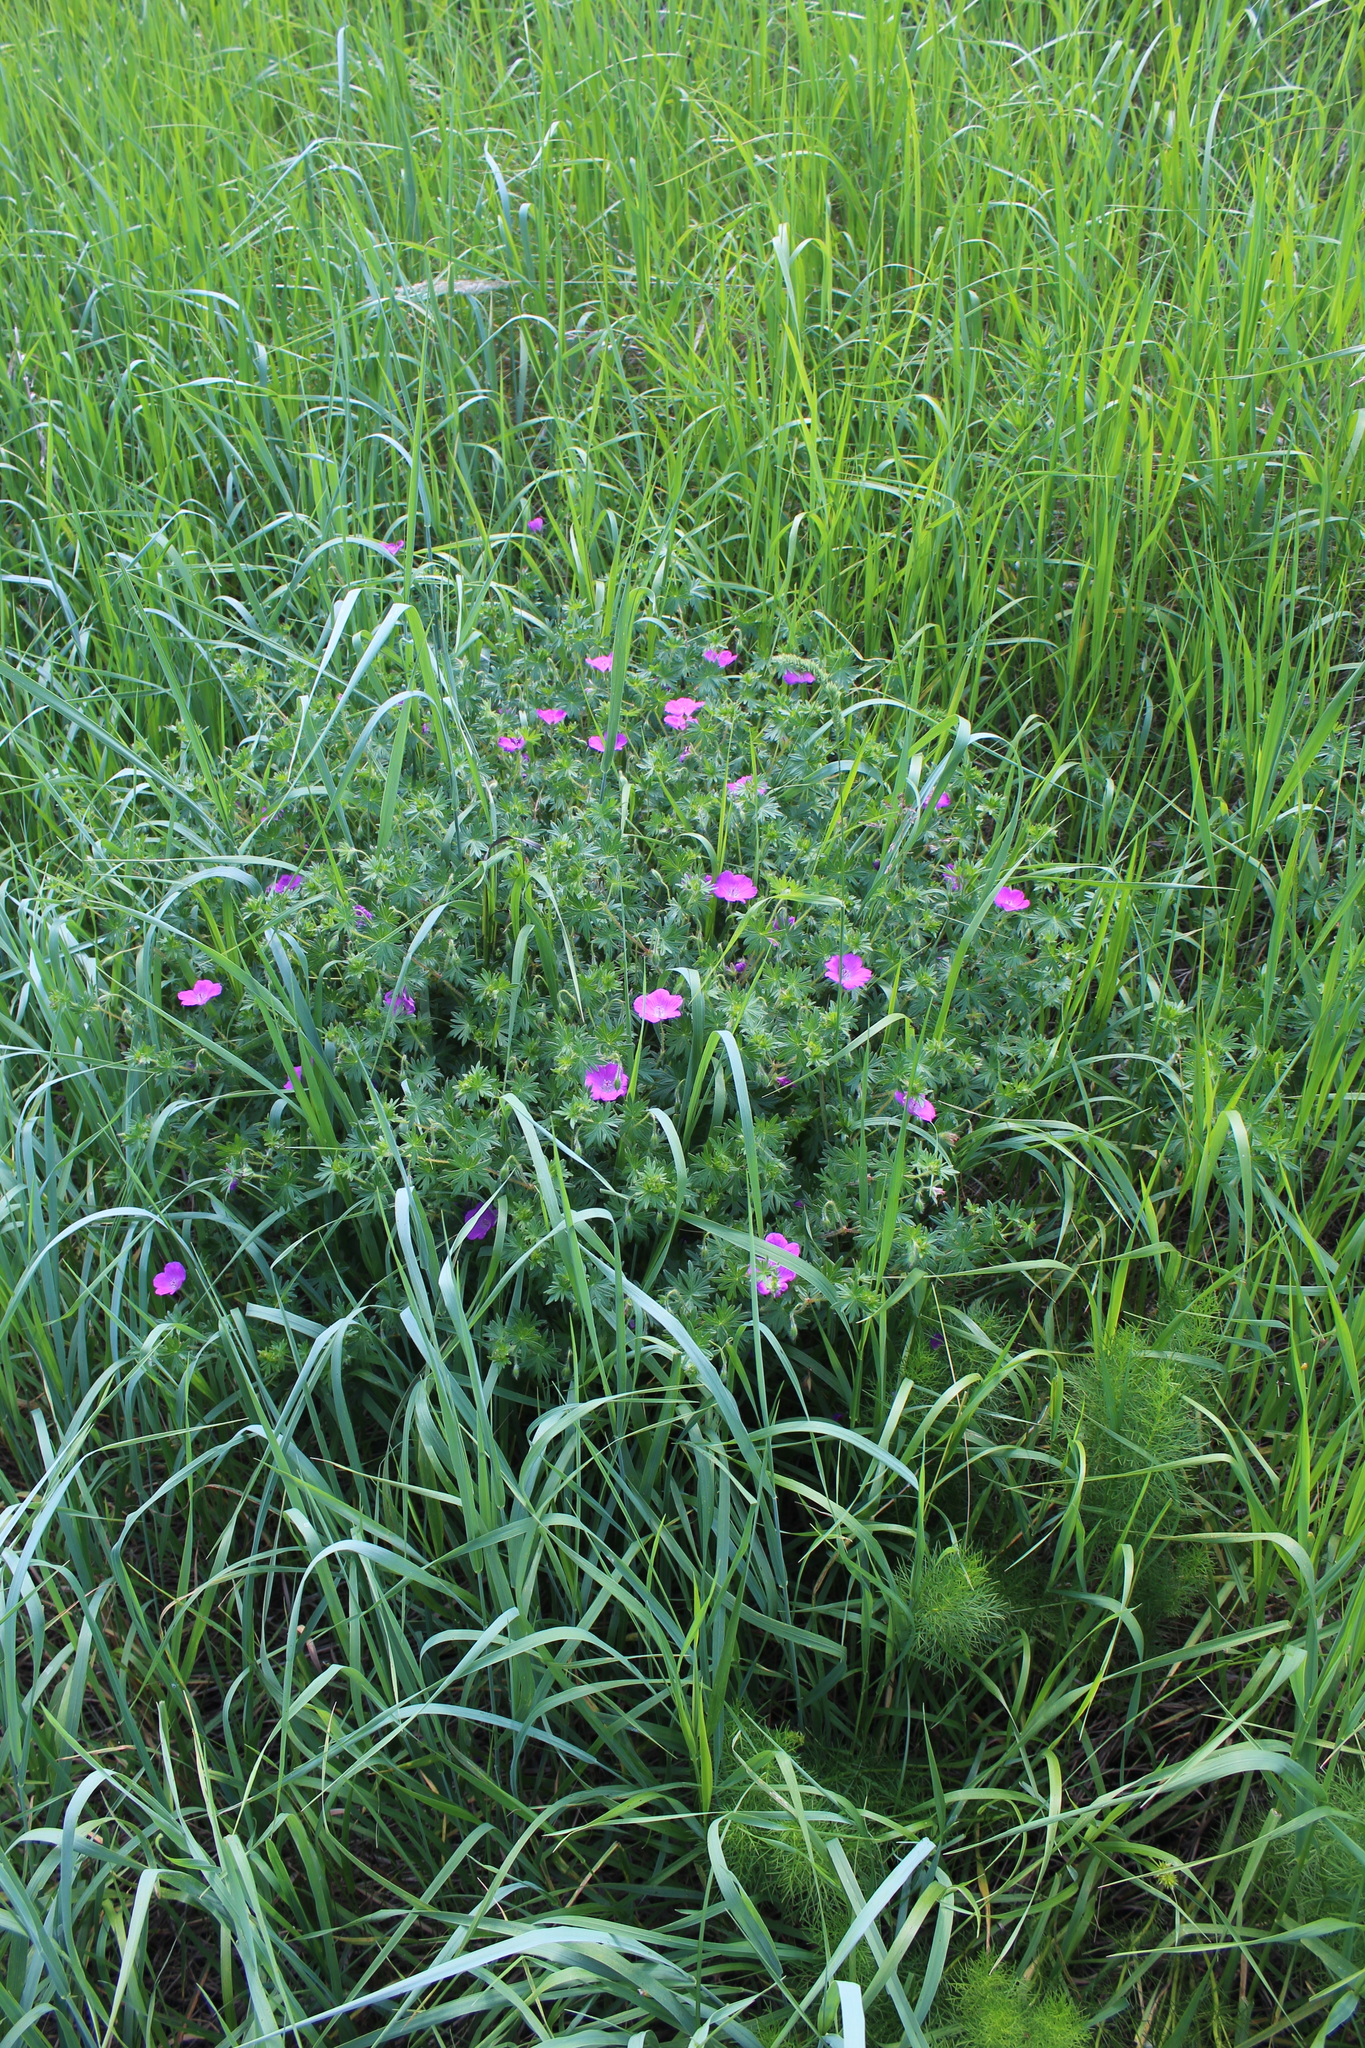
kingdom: Plantae
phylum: Tracheophyta
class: Magnoliopsida
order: Geraniales
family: Geraniaceae
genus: Geranium
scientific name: Geranium sanguineum
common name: Bloody crane's-bill
